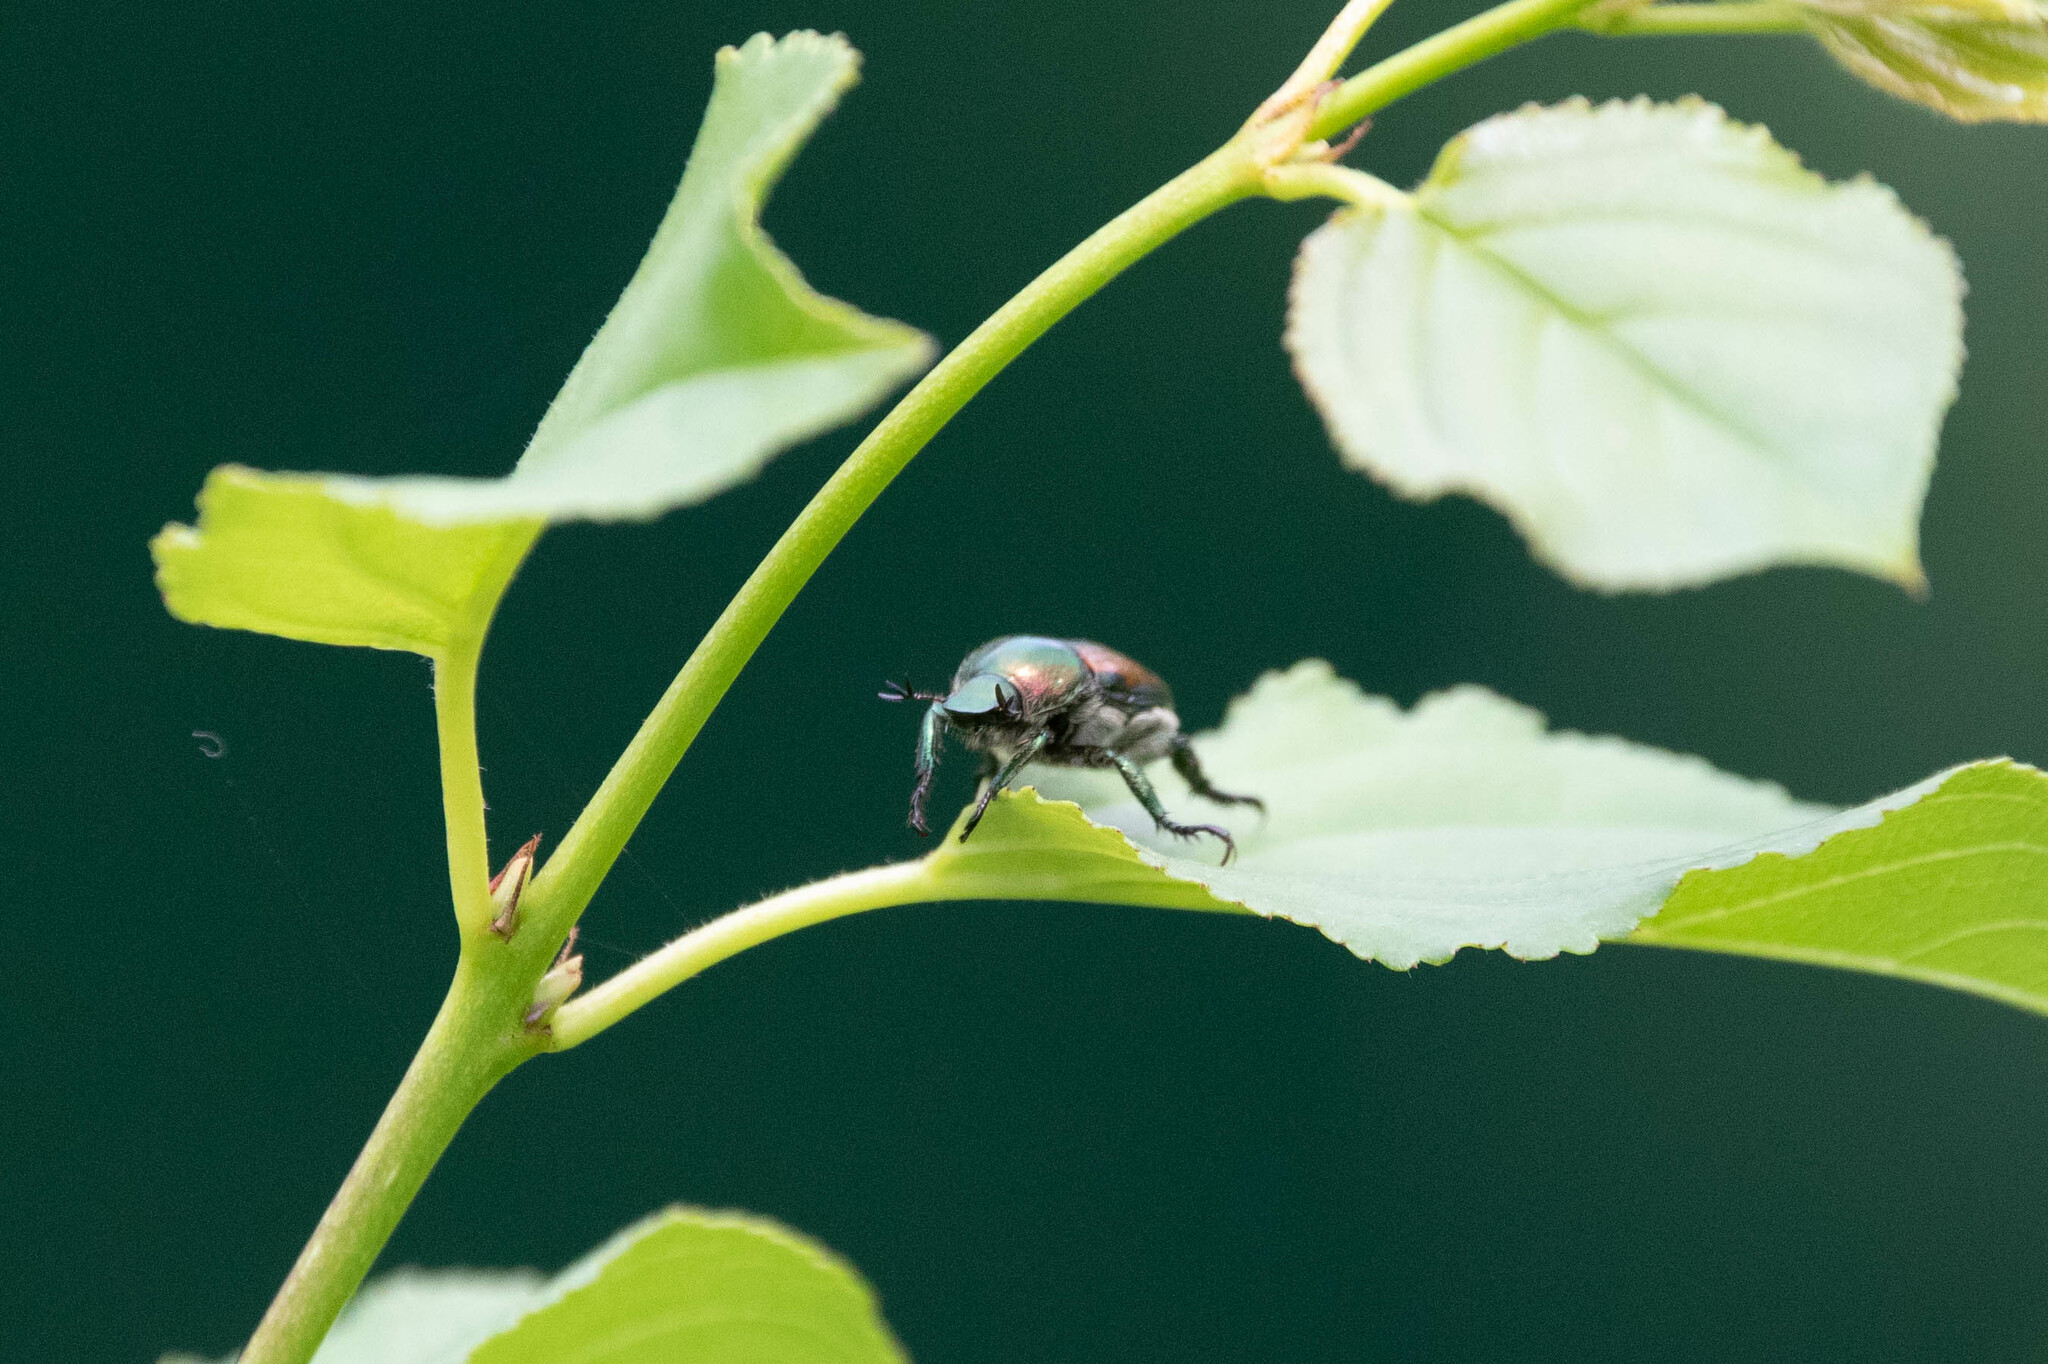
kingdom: Animalia
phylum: Arthropoda
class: Insecta
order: Coleoptera
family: Scarabaeidae
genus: Popillia
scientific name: Popillia japonica
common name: Japanese beetle
